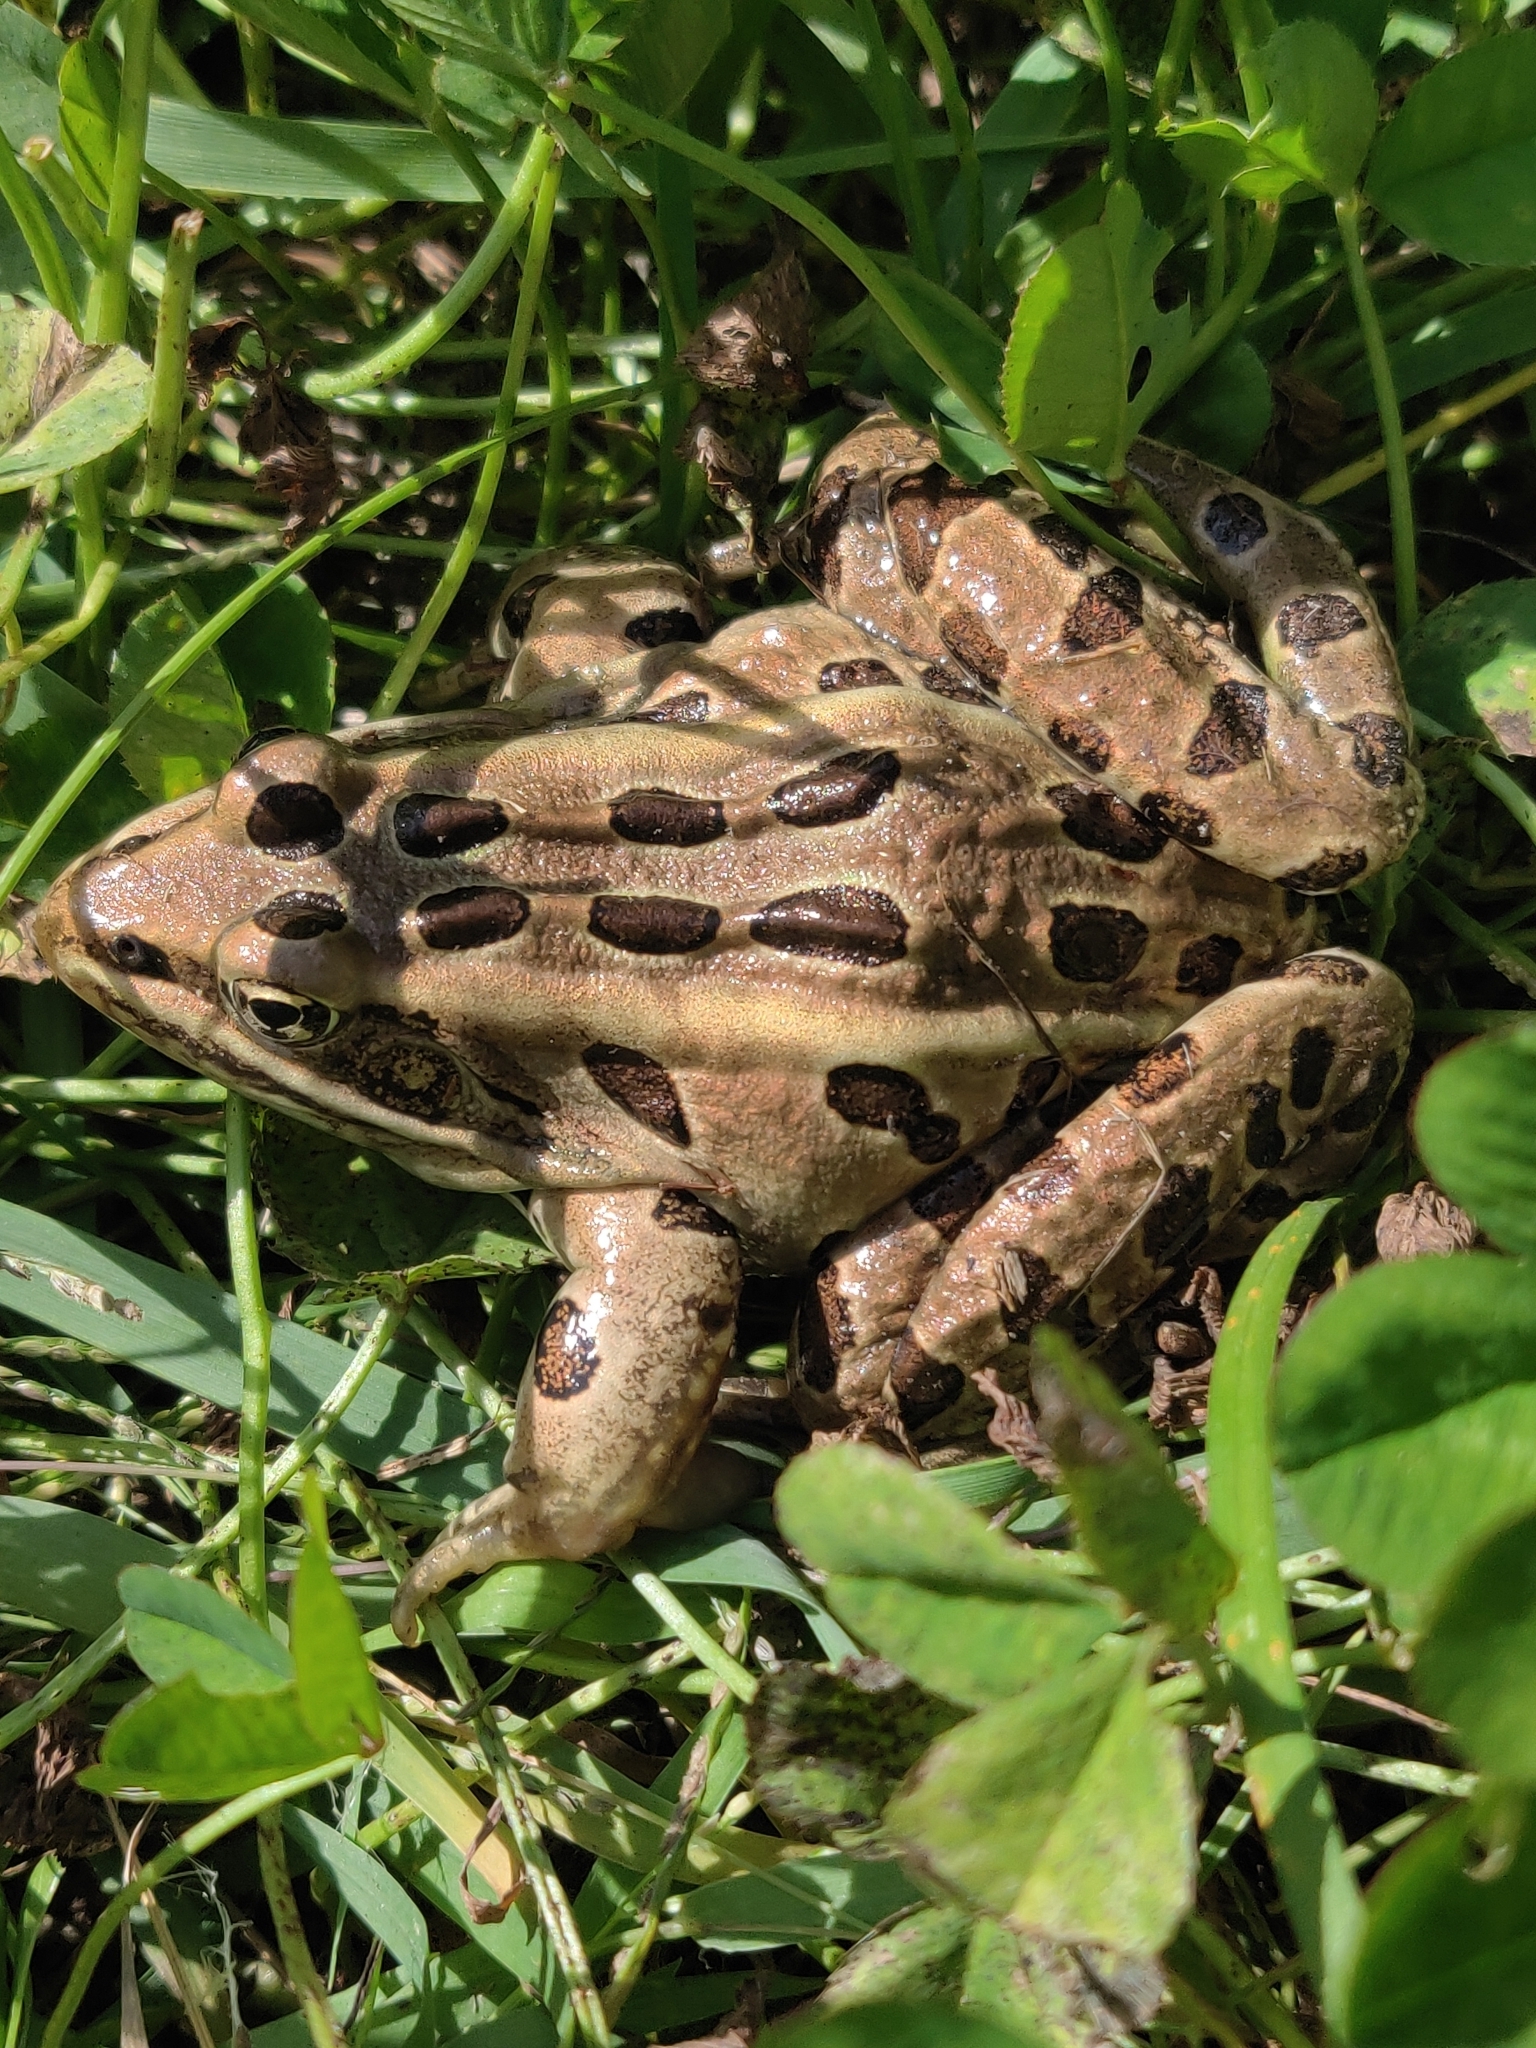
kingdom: Animalia
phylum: Chordata
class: Amphibia
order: Anura
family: Ranidae
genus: Lithobates
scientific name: Lithobates pipiens
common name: Northern leopard frog
